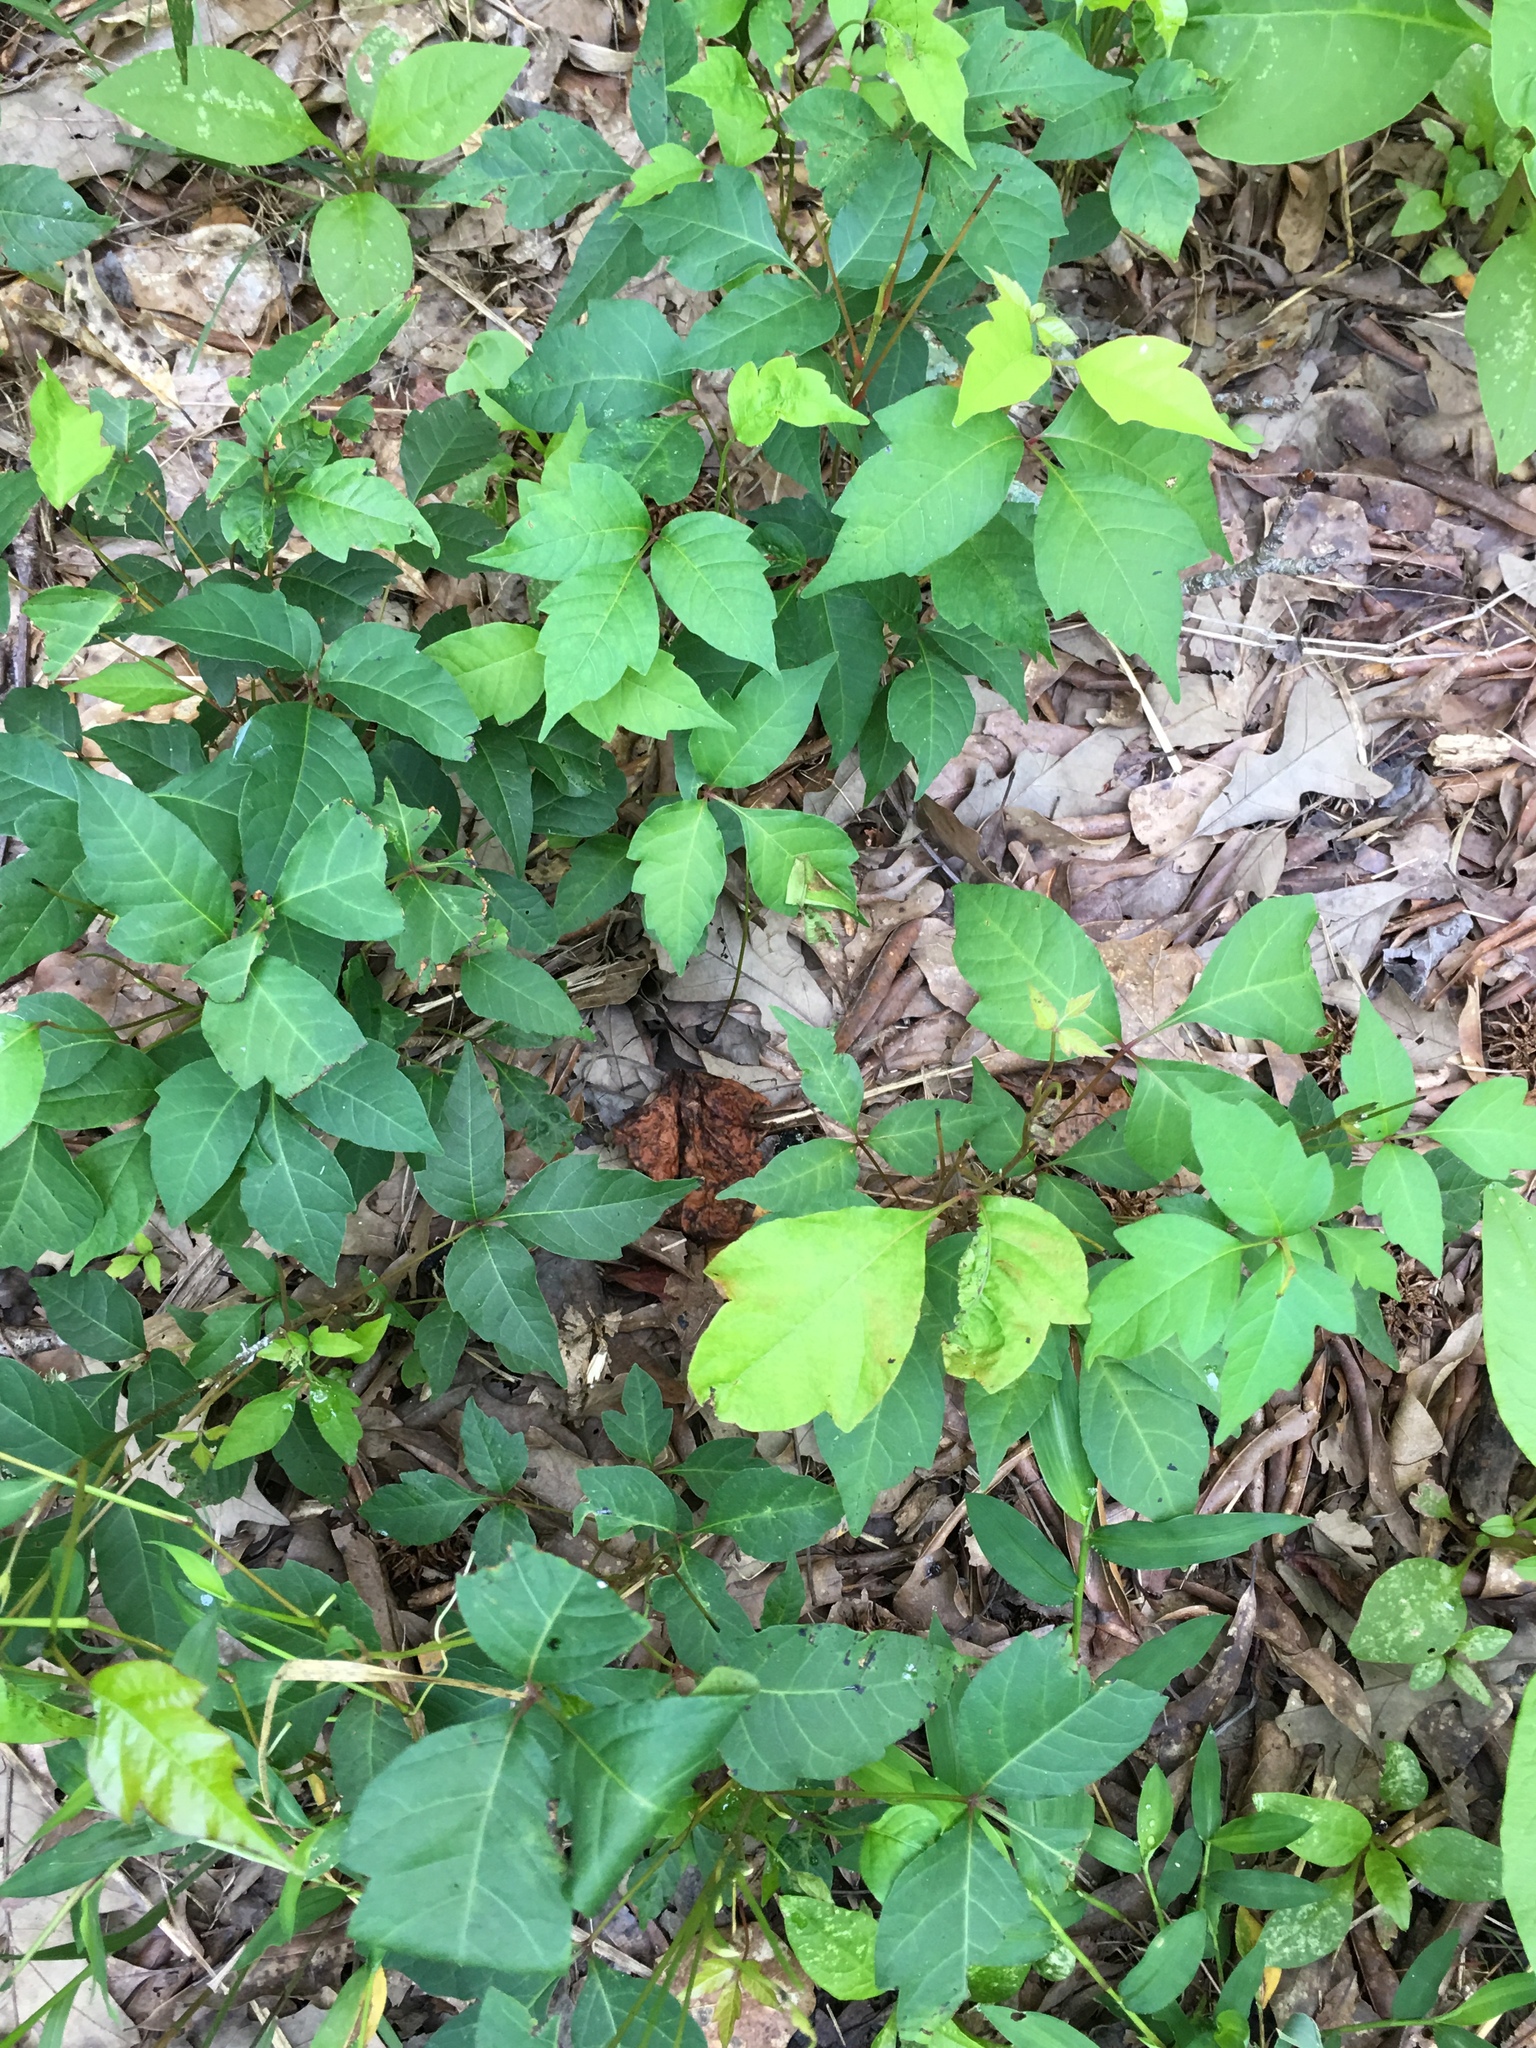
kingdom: Plantae
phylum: Tracheophyta
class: Magnoliopsida
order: Sapindales
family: Anacardiaceae
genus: Toxicodendron
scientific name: Toxicodendron radicans
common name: Poison ivy
